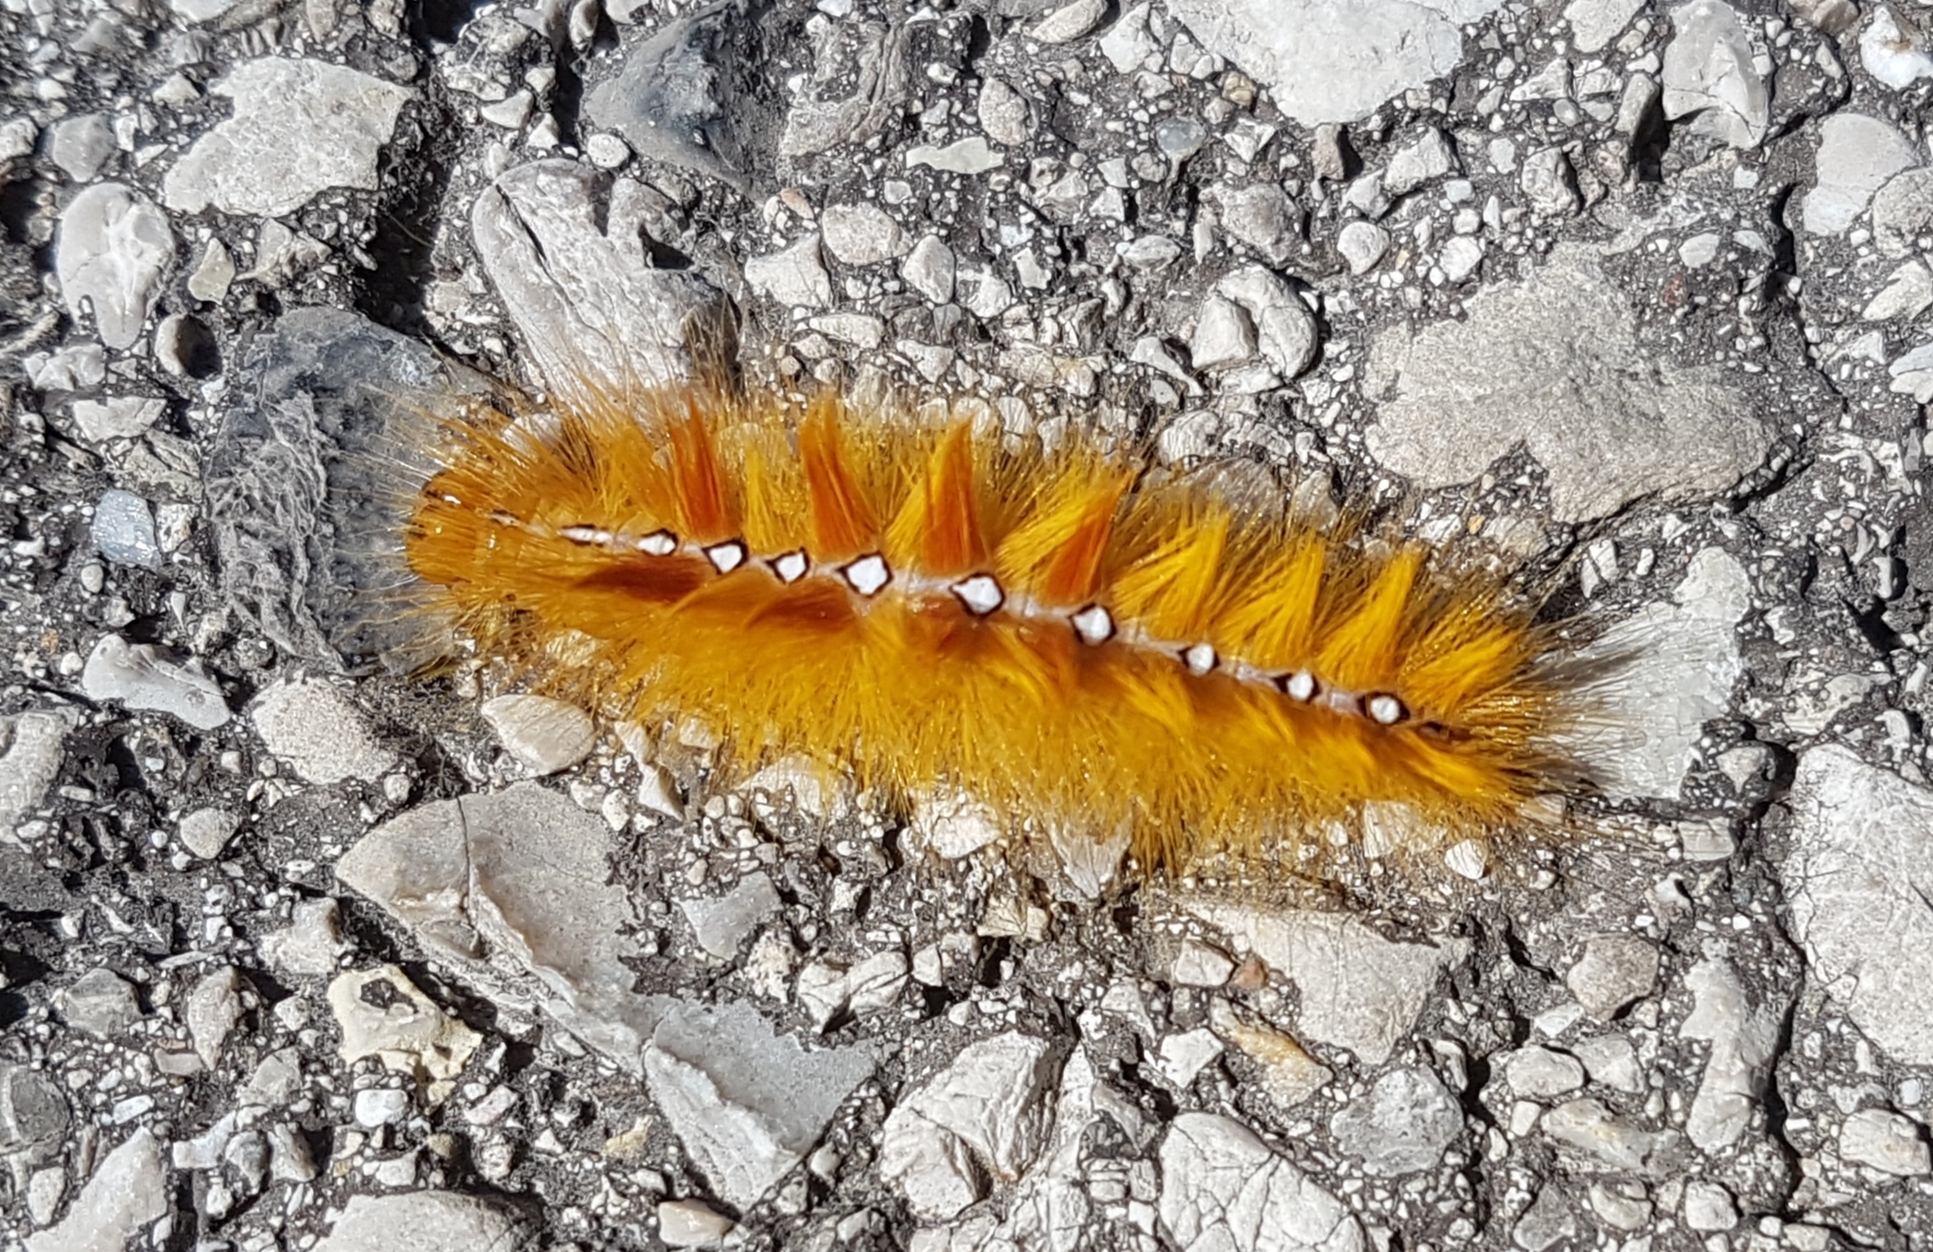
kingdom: Animalia
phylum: Arthropoda
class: Insecta
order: Lepidoptera
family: Noctuidae
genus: Acronicta
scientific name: Acronicta aceris
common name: Sycamore
